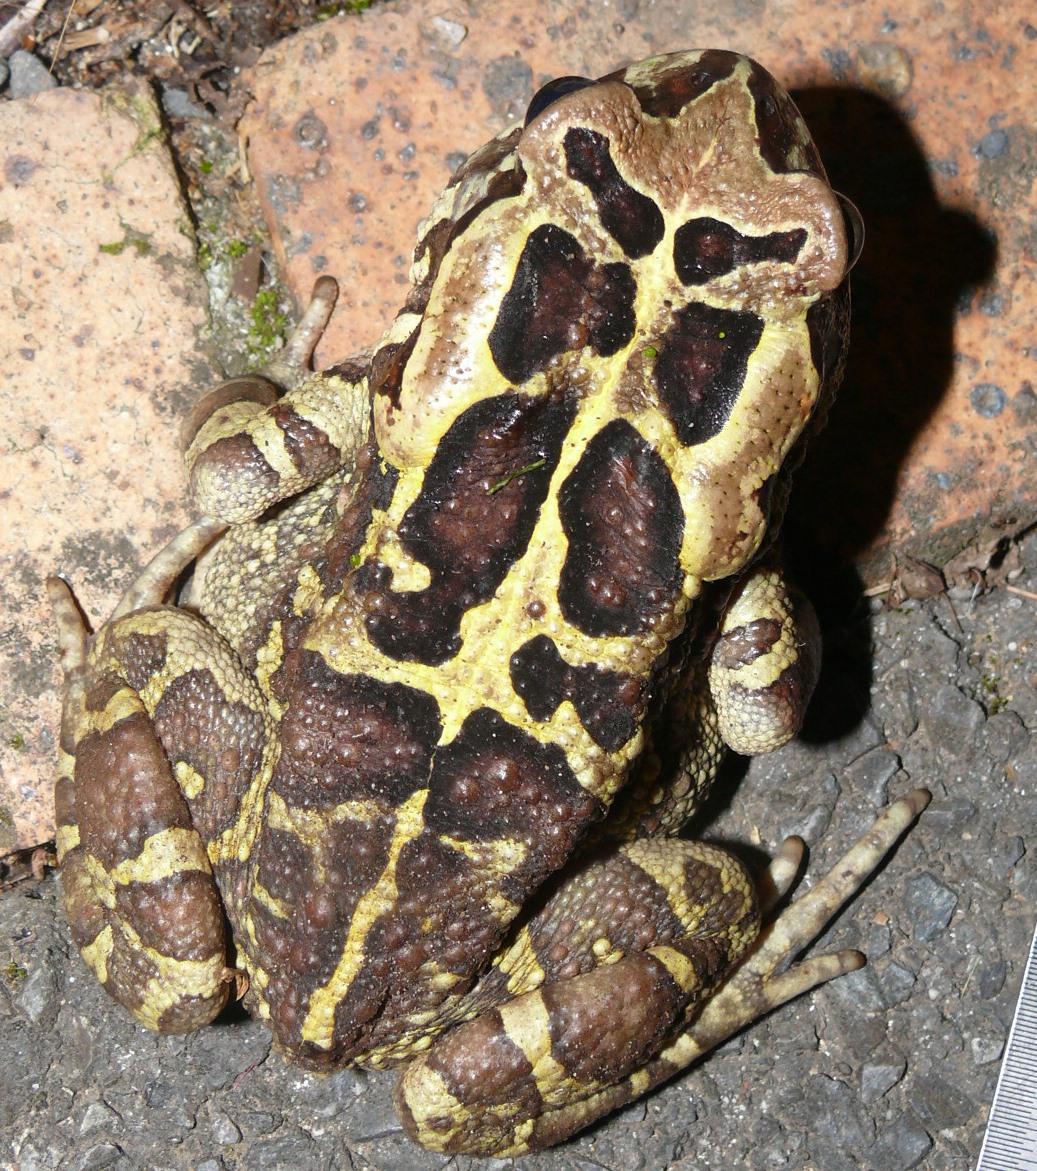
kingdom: Animalia
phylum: Chordata
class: Amphibia
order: Anura
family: Bufonidae
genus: Sclerophrys
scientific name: Sclerophrys pantherina
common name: Panther toad
